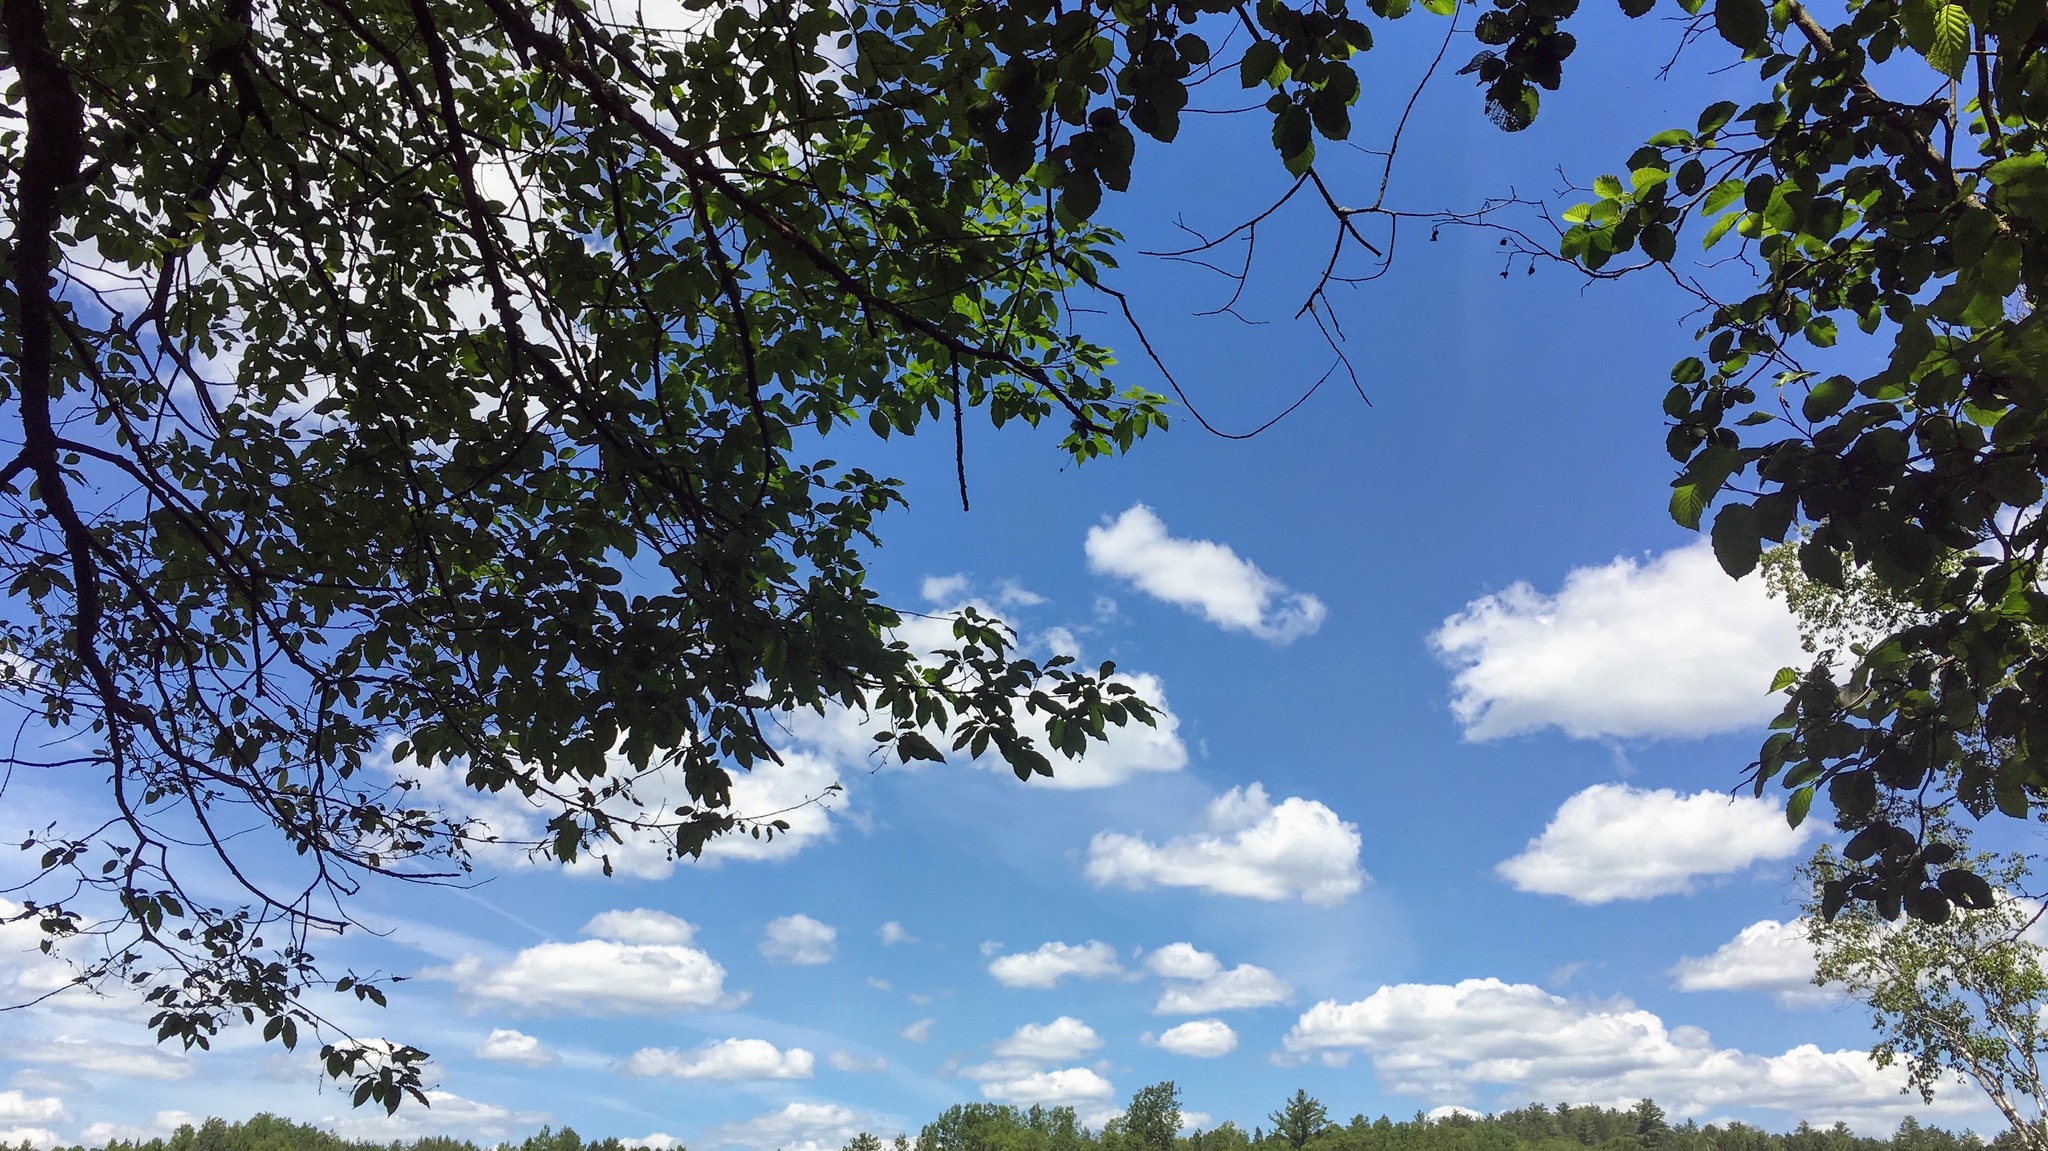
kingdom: Plantae
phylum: Tracheophyta
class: Magnoliopsida
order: Fagales
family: Betulaceae
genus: Alnus
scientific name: Alnus incana
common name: Grey alder
